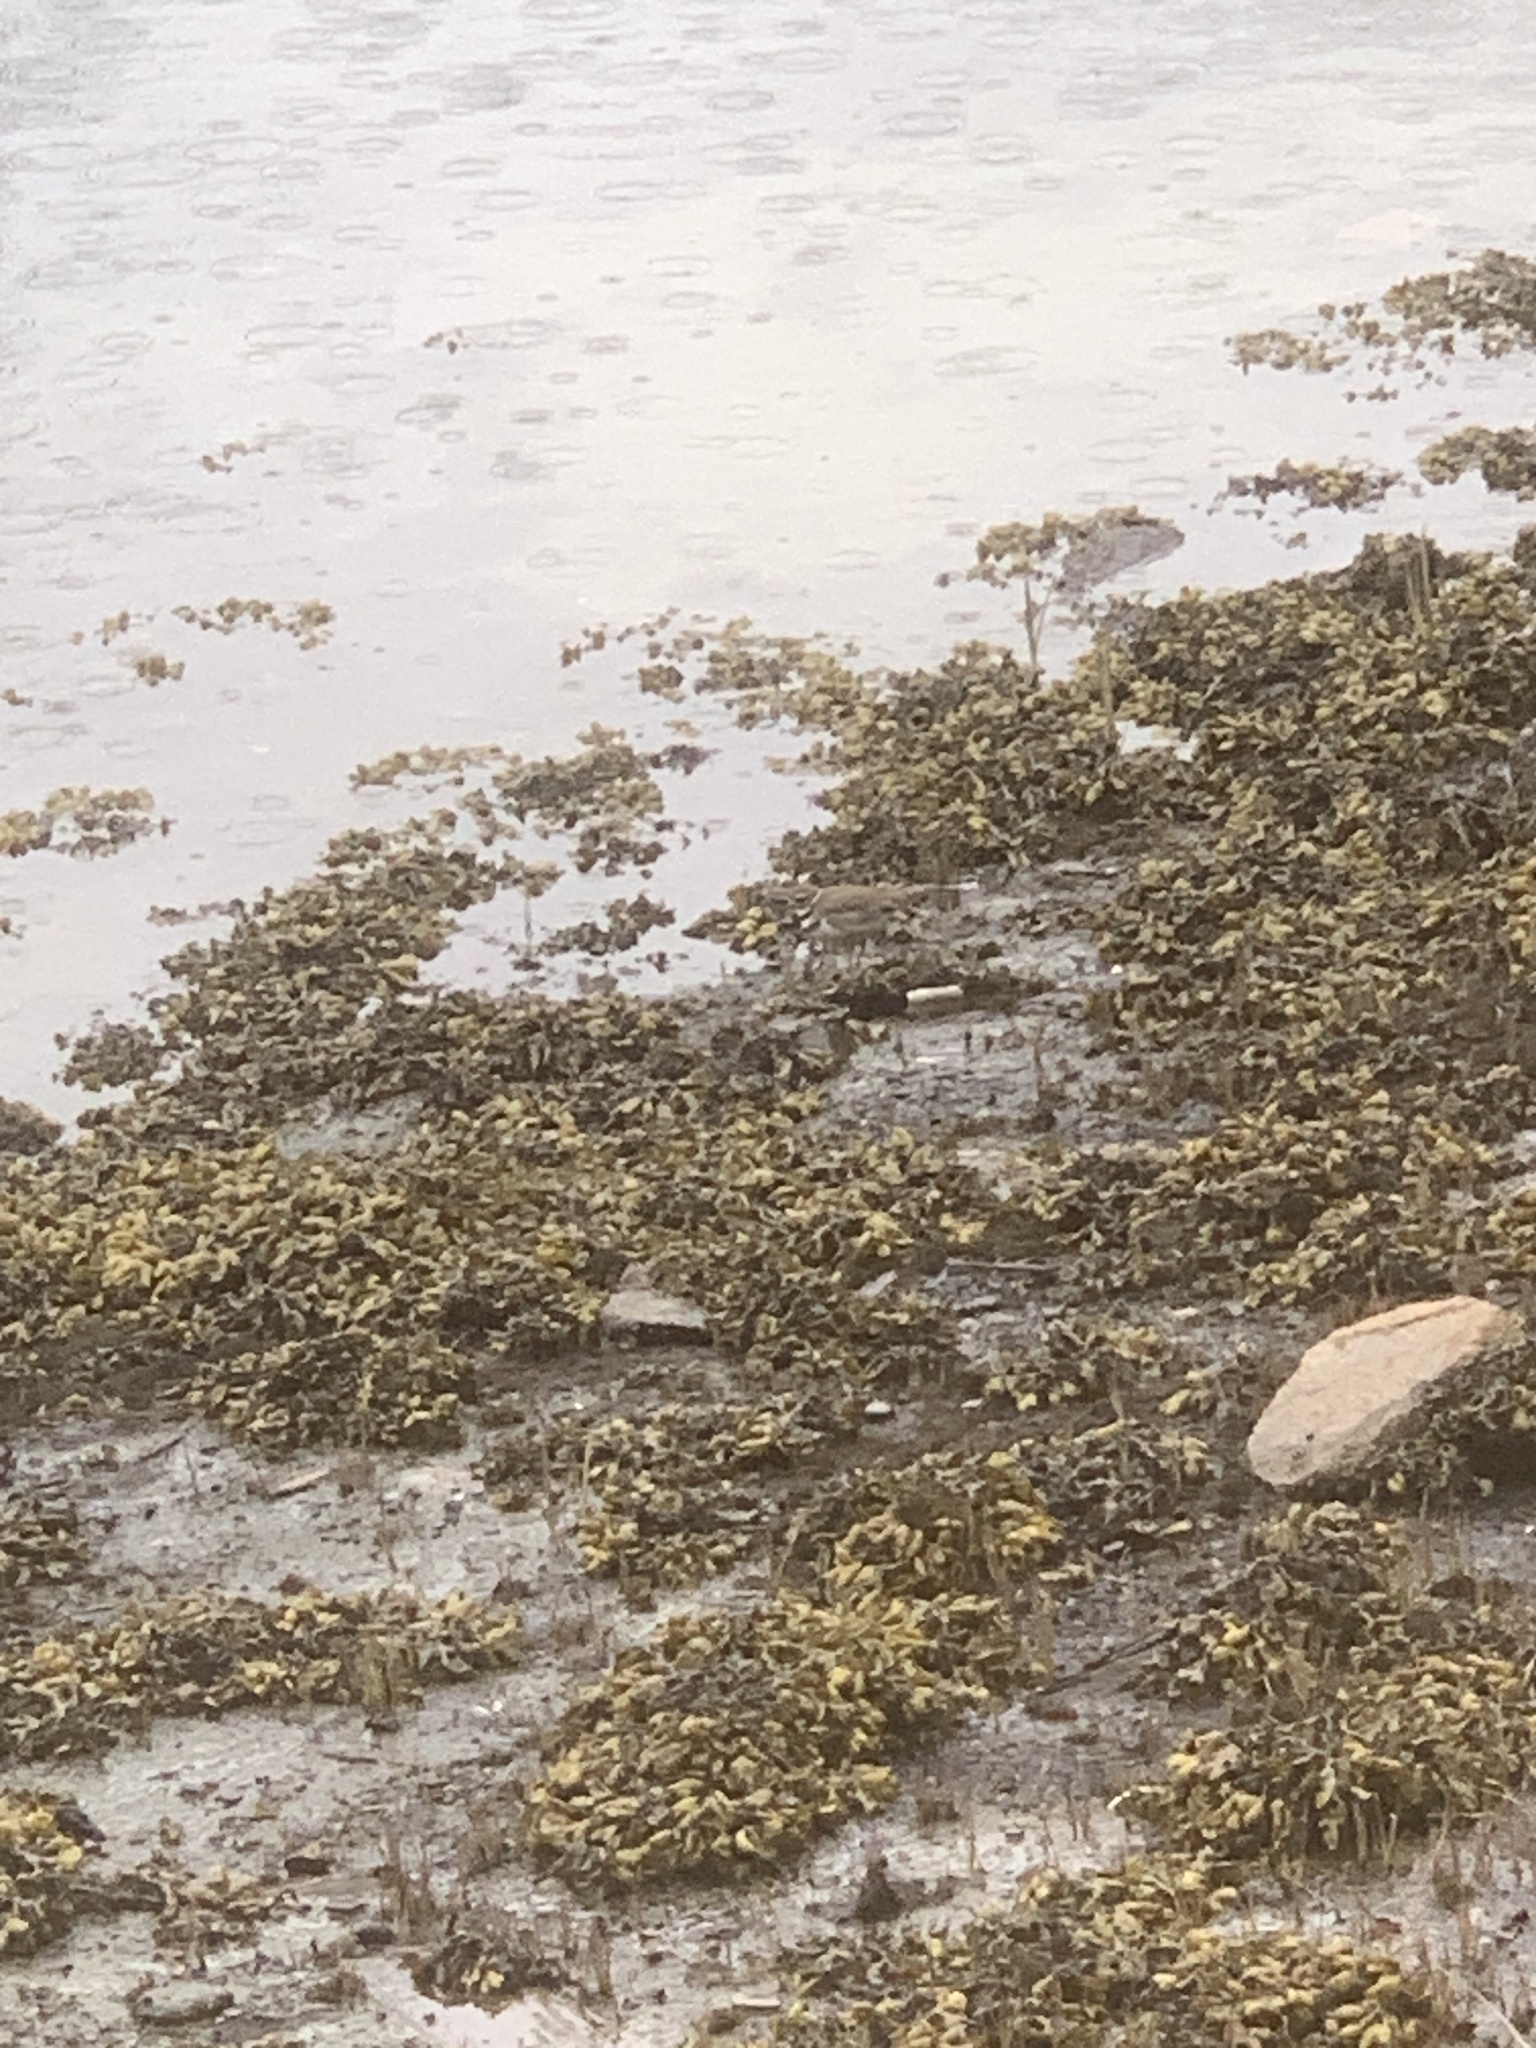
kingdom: Animalia
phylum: Chordata
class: Aves
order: Charadriiformes
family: Charadriidae
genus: Charadrius
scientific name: Charadrius vociferus
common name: Killdeer
